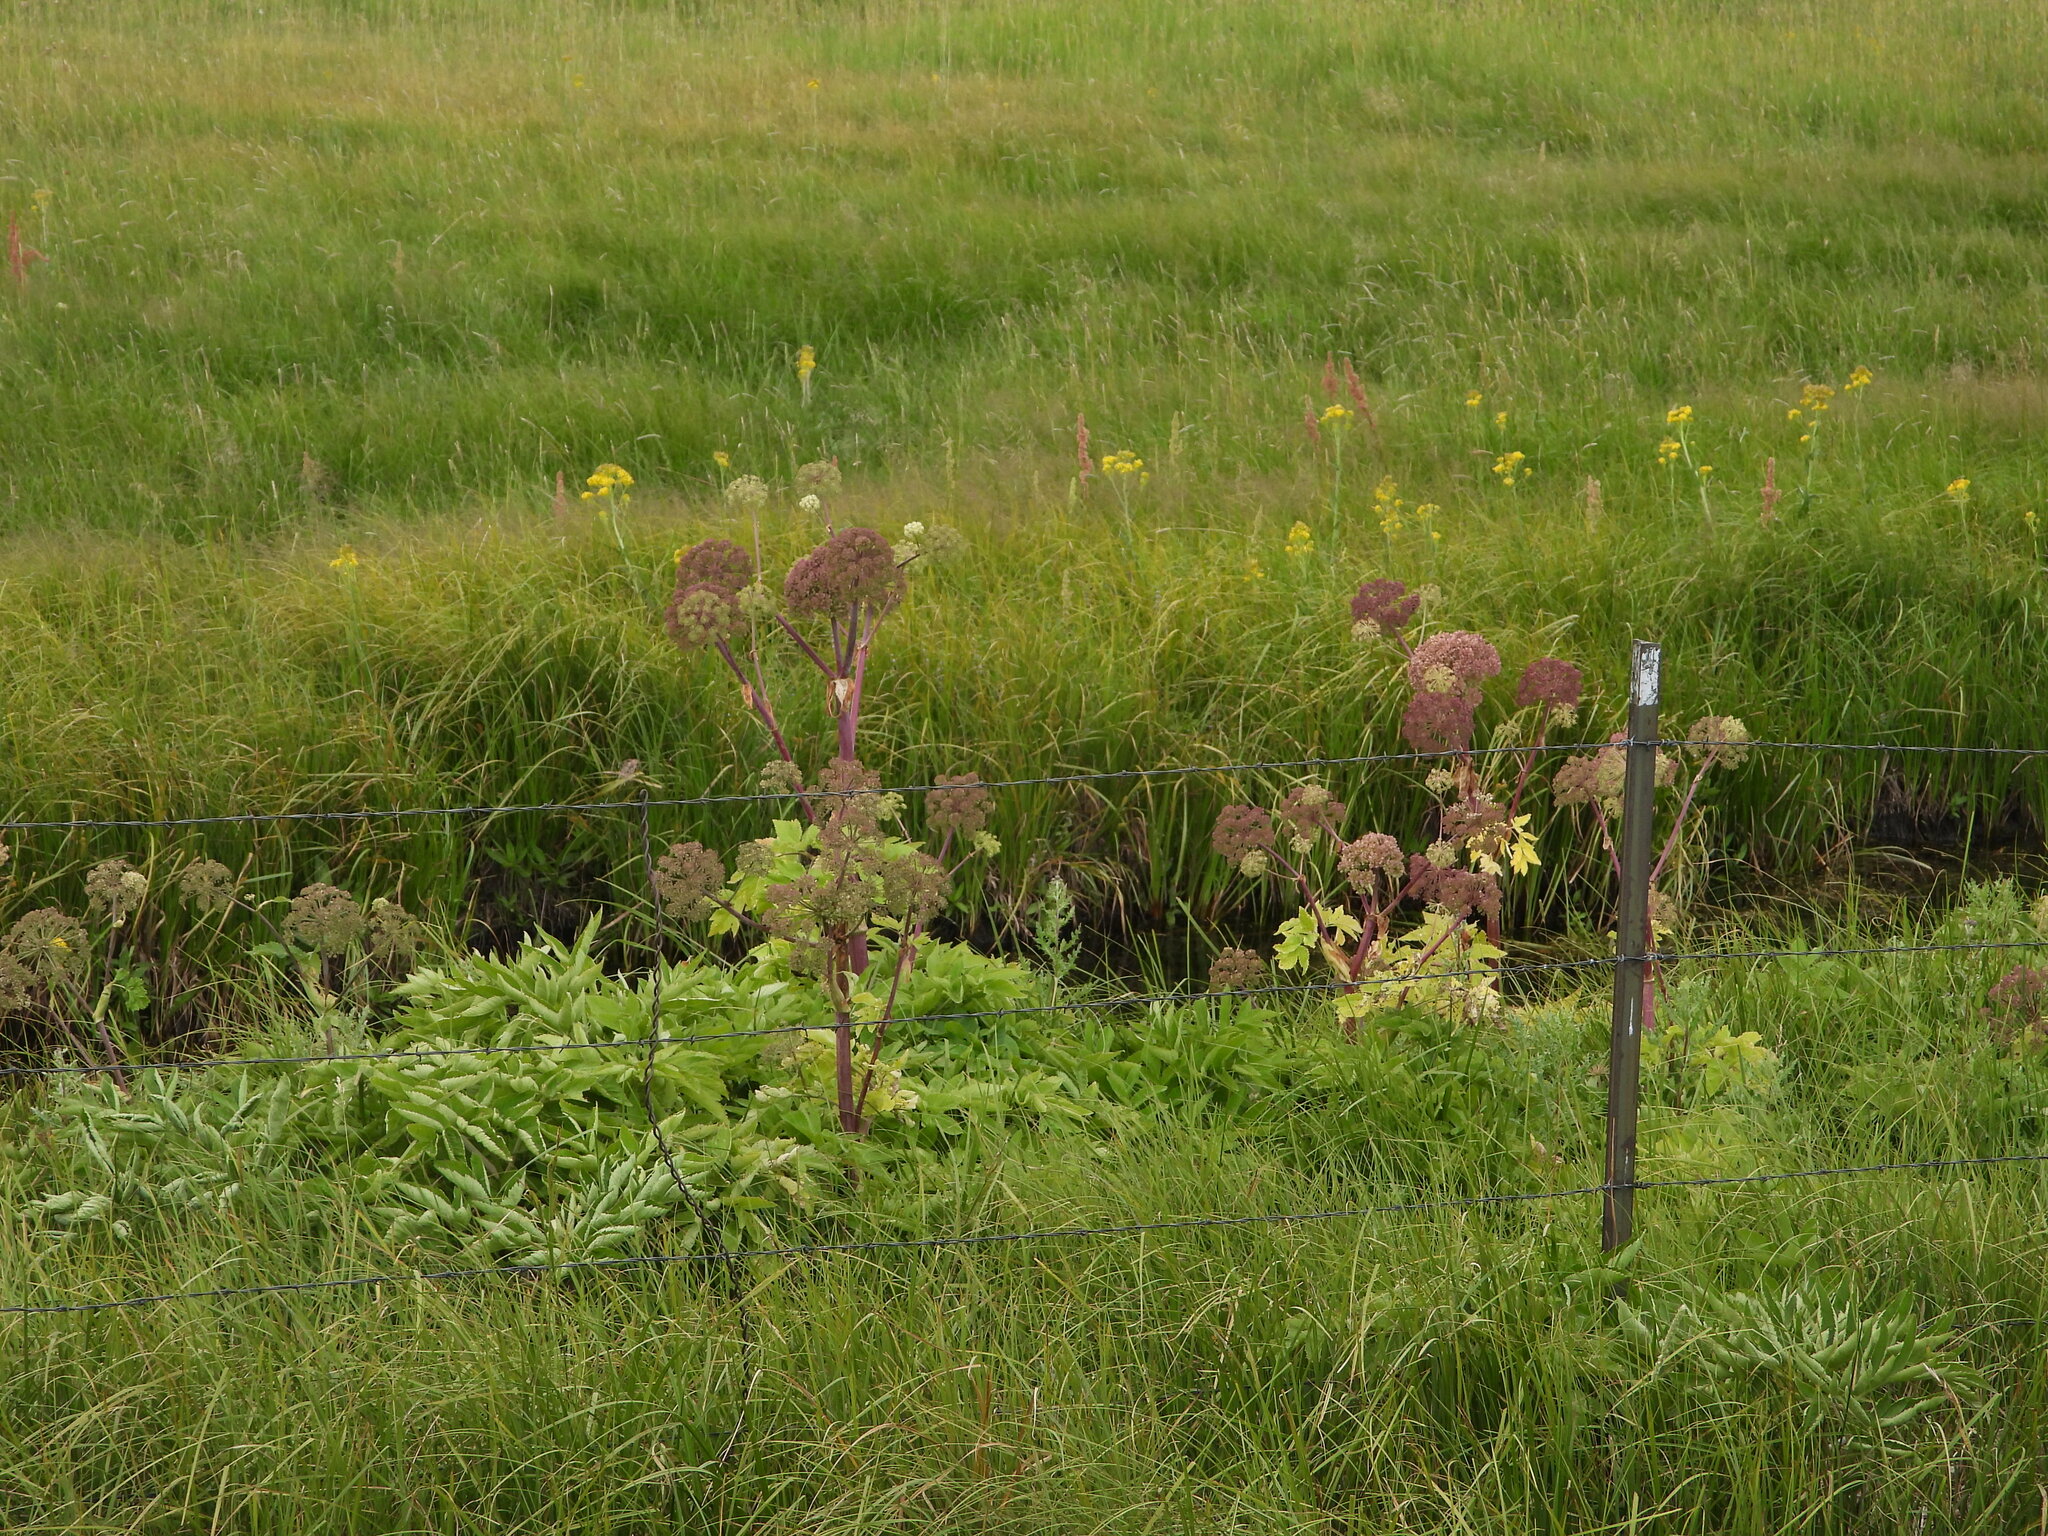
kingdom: Plantae
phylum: Tracheophyta
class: Magnoliopsida
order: Apiales
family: Apiaceae
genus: Angelica
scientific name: Angelica ampla
